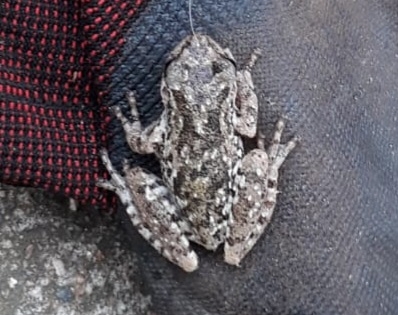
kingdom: Animalia
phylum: Chordata
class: Amphibia
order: Anura
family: Hylidae
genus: Scinax
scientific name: Scinax granulatus
